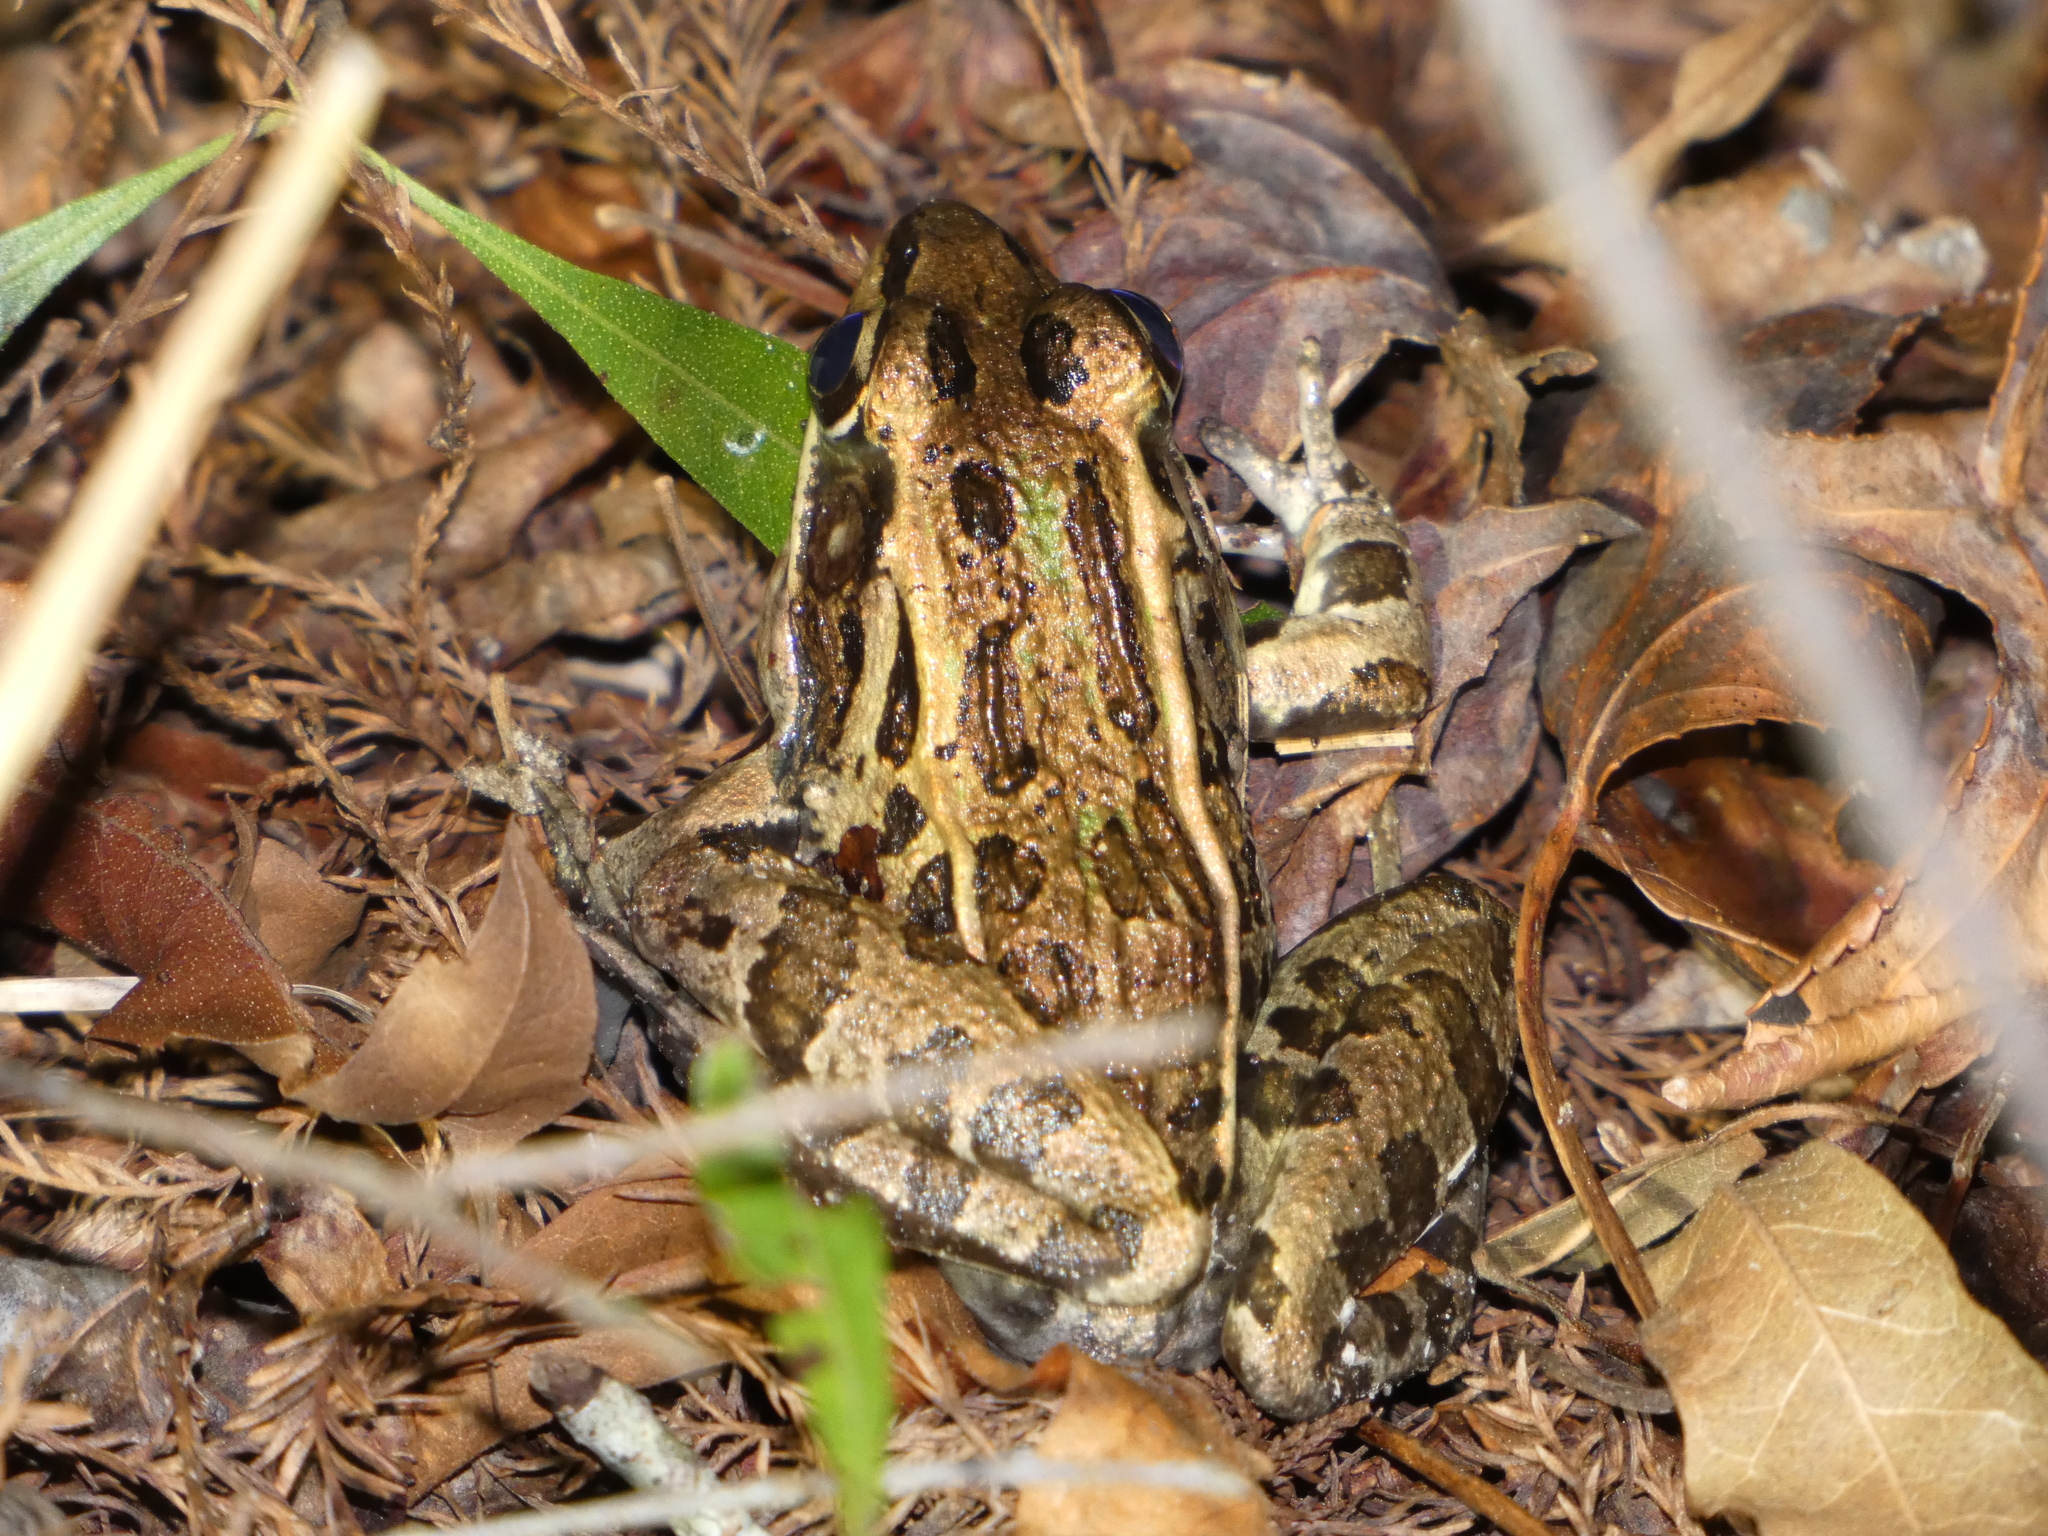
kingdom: Animalia
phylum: Chordata
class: Amphibia
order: Anura
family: Ranidae
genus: Lithobates
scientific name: Lithobates sphenocephalus
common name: Southern leopard frog
